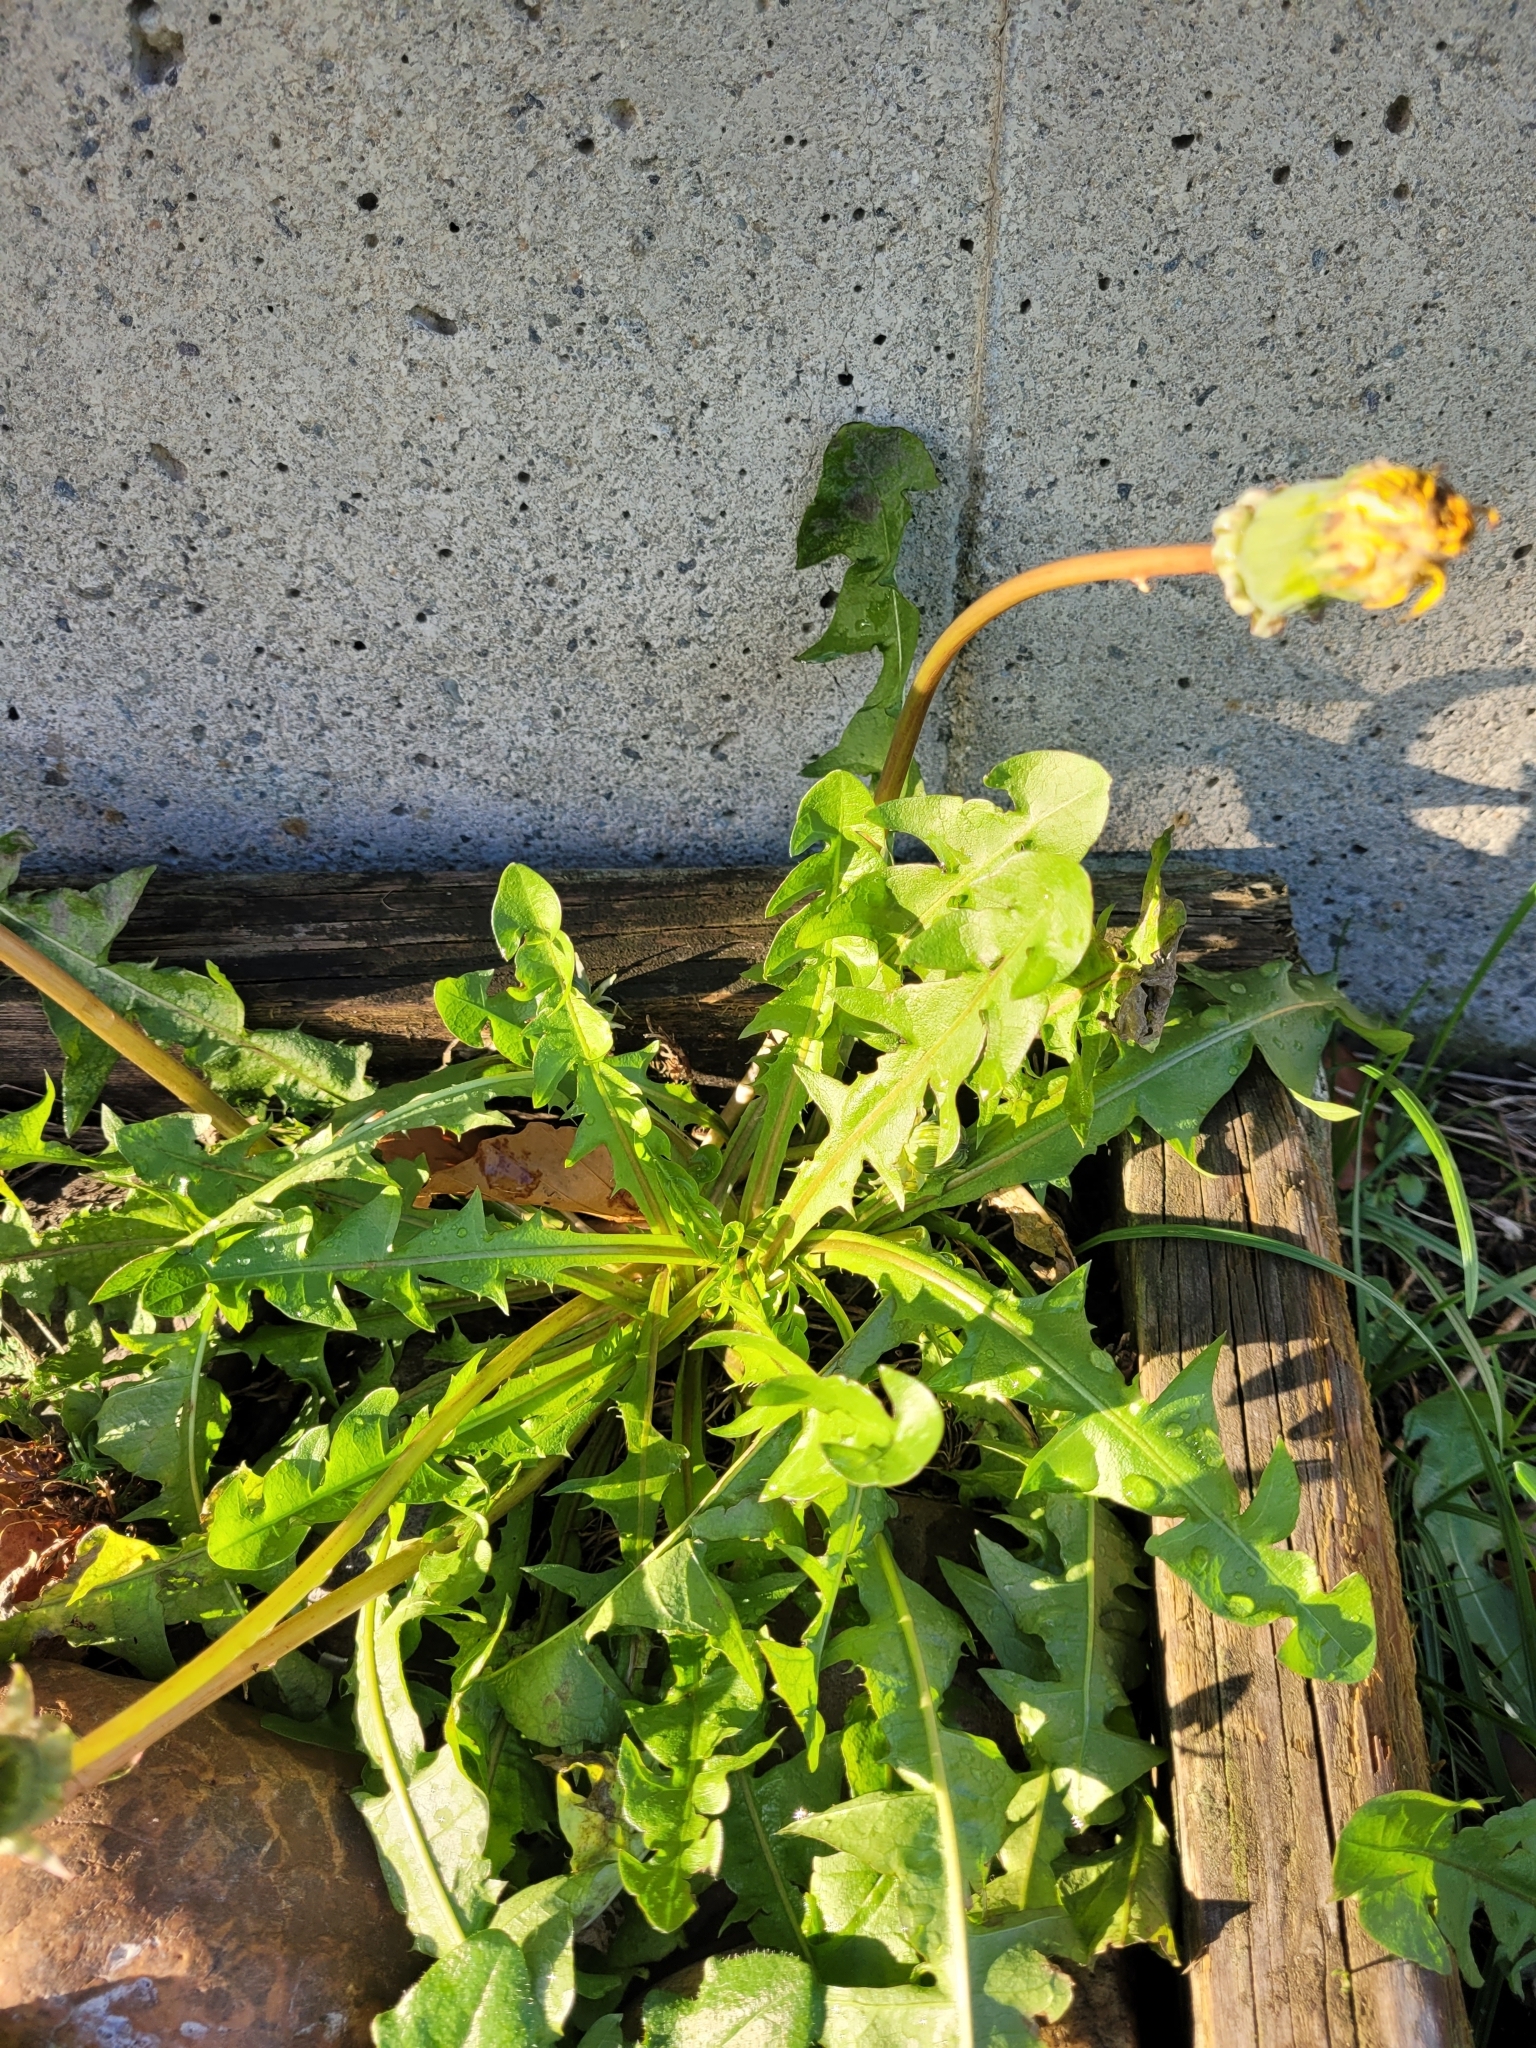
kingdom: Plantae
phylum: Tracheophyta
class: Magnoliopsida
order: Asterales
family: Asteraceae
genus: Taraxacum
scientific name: Taraxacum officinale
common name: Common dandelion
